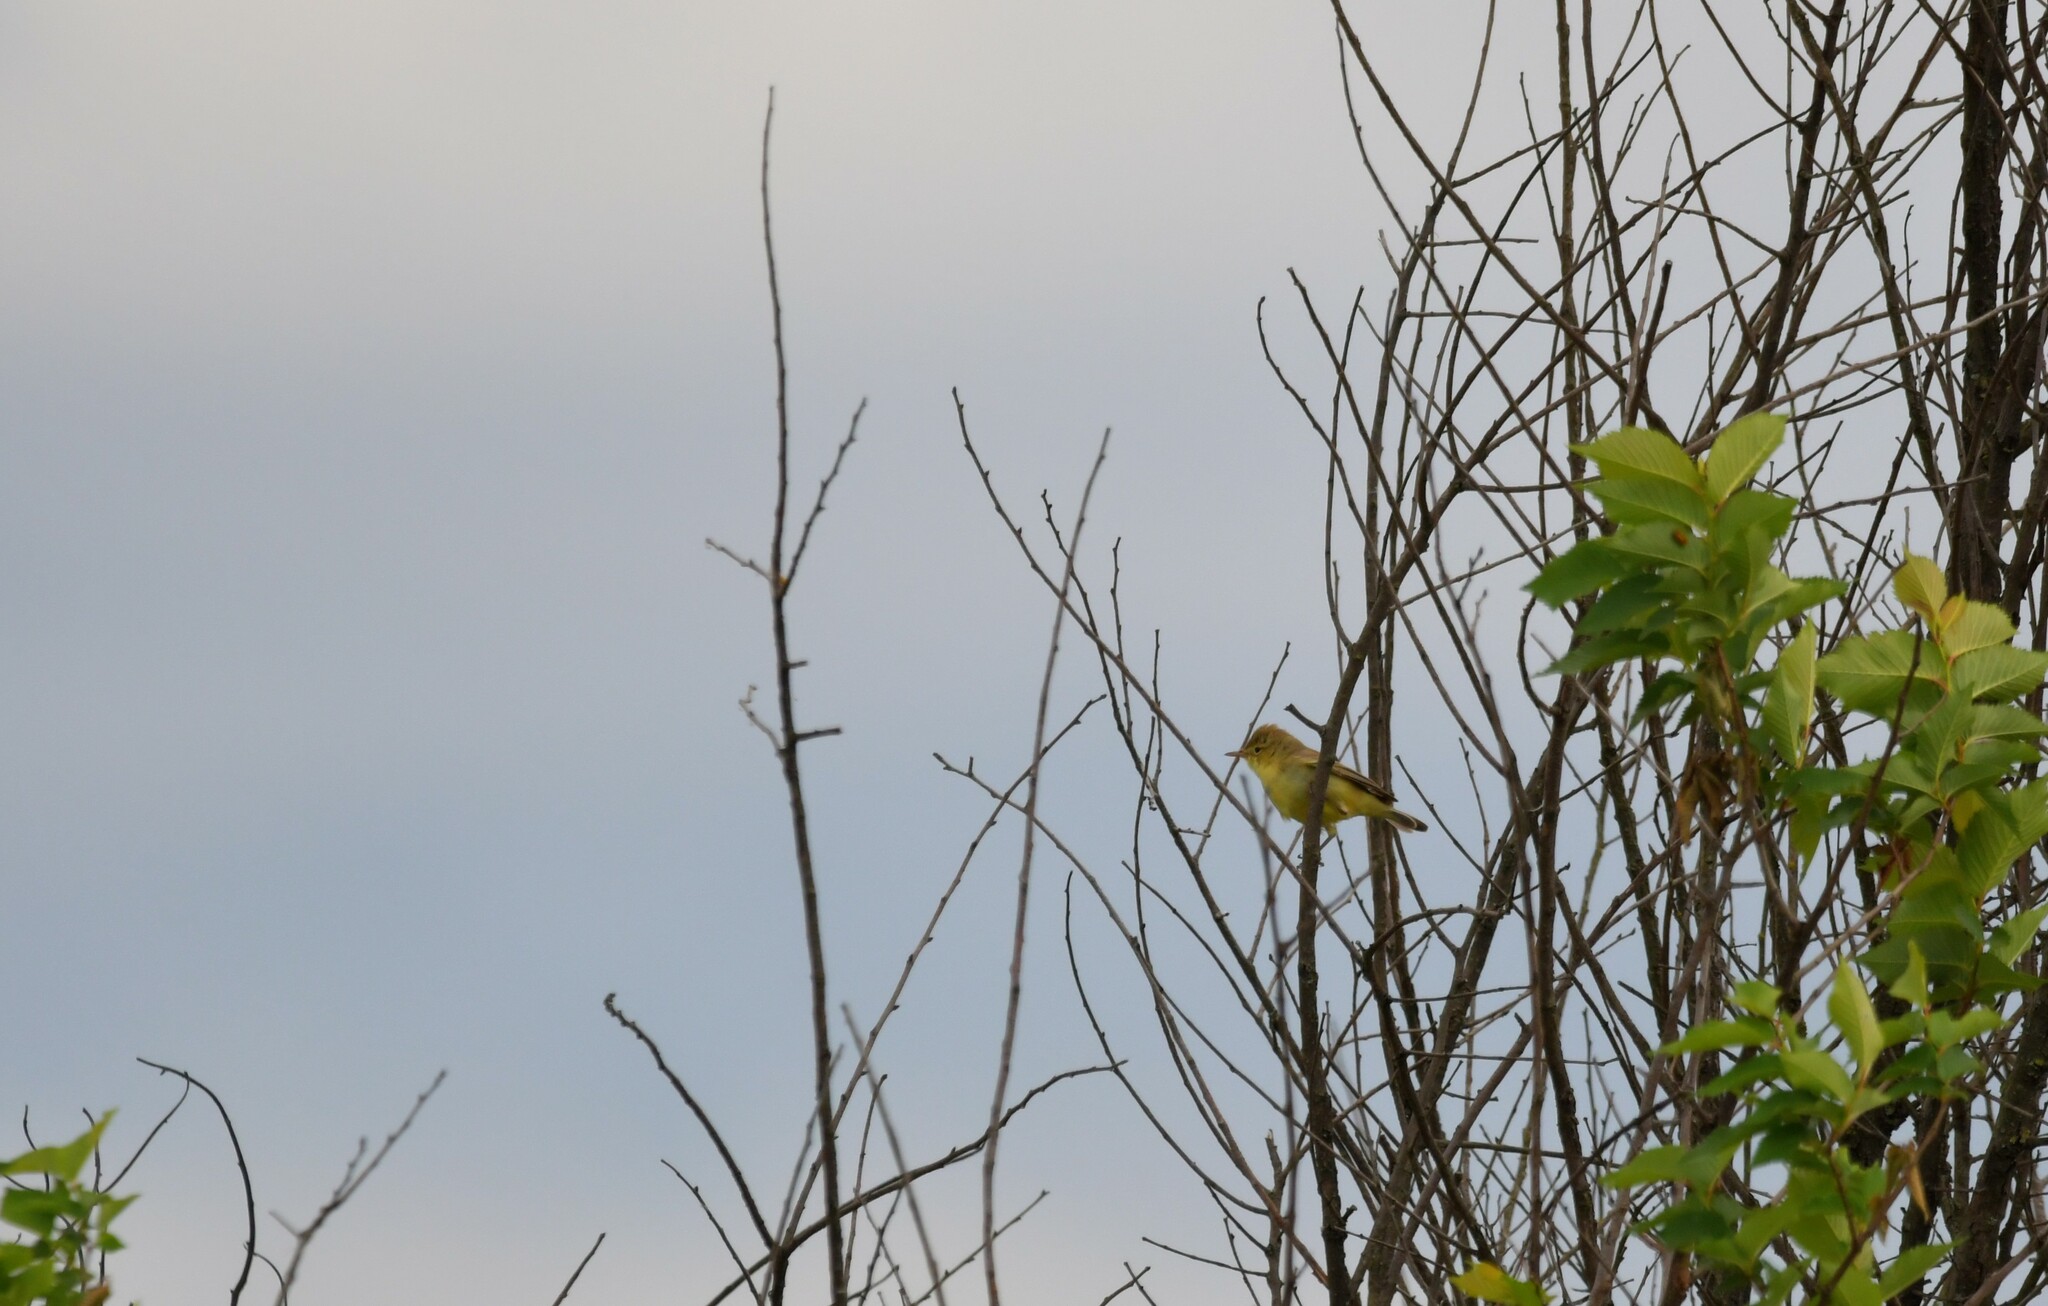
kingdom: Animalia
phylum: Chordata
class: Aves
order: Passeriformes
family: Acrocephalidae
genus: Hippolais
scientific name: Hippolais polyglotta
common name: Melodious warbler
